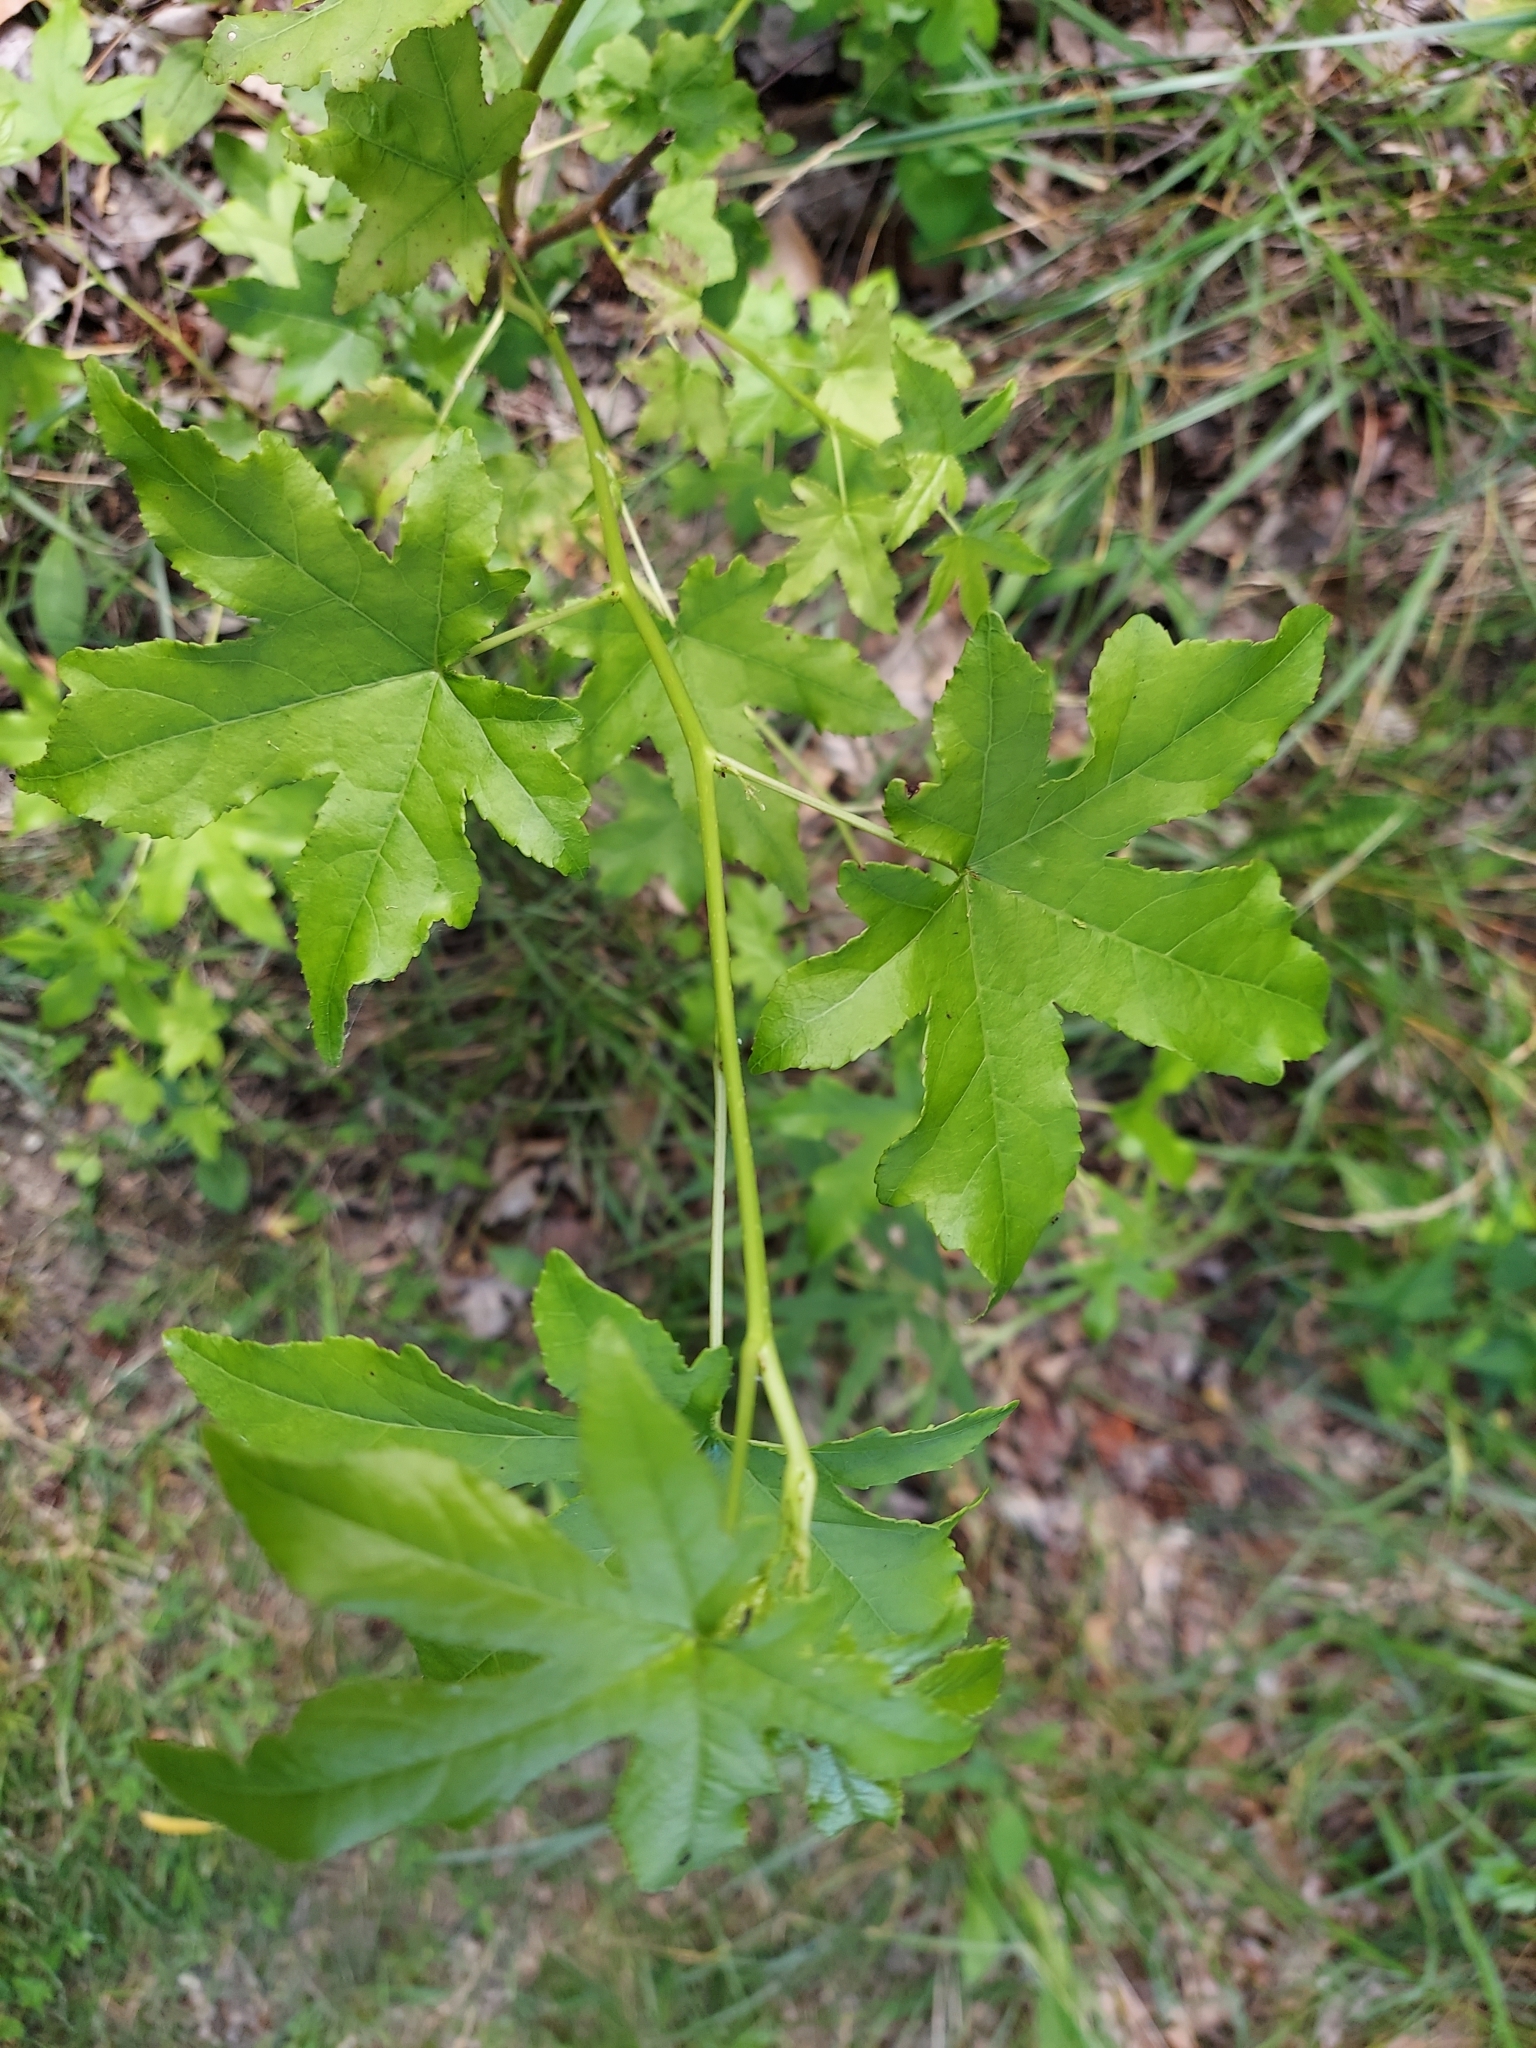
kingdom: Plantae
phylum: Tracheophyta
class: Magnoliopsida
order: Saxifragales
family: Altingiaceae
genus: Liquidambar
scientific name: Liquidambar styraciflua
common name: Sweet gum
